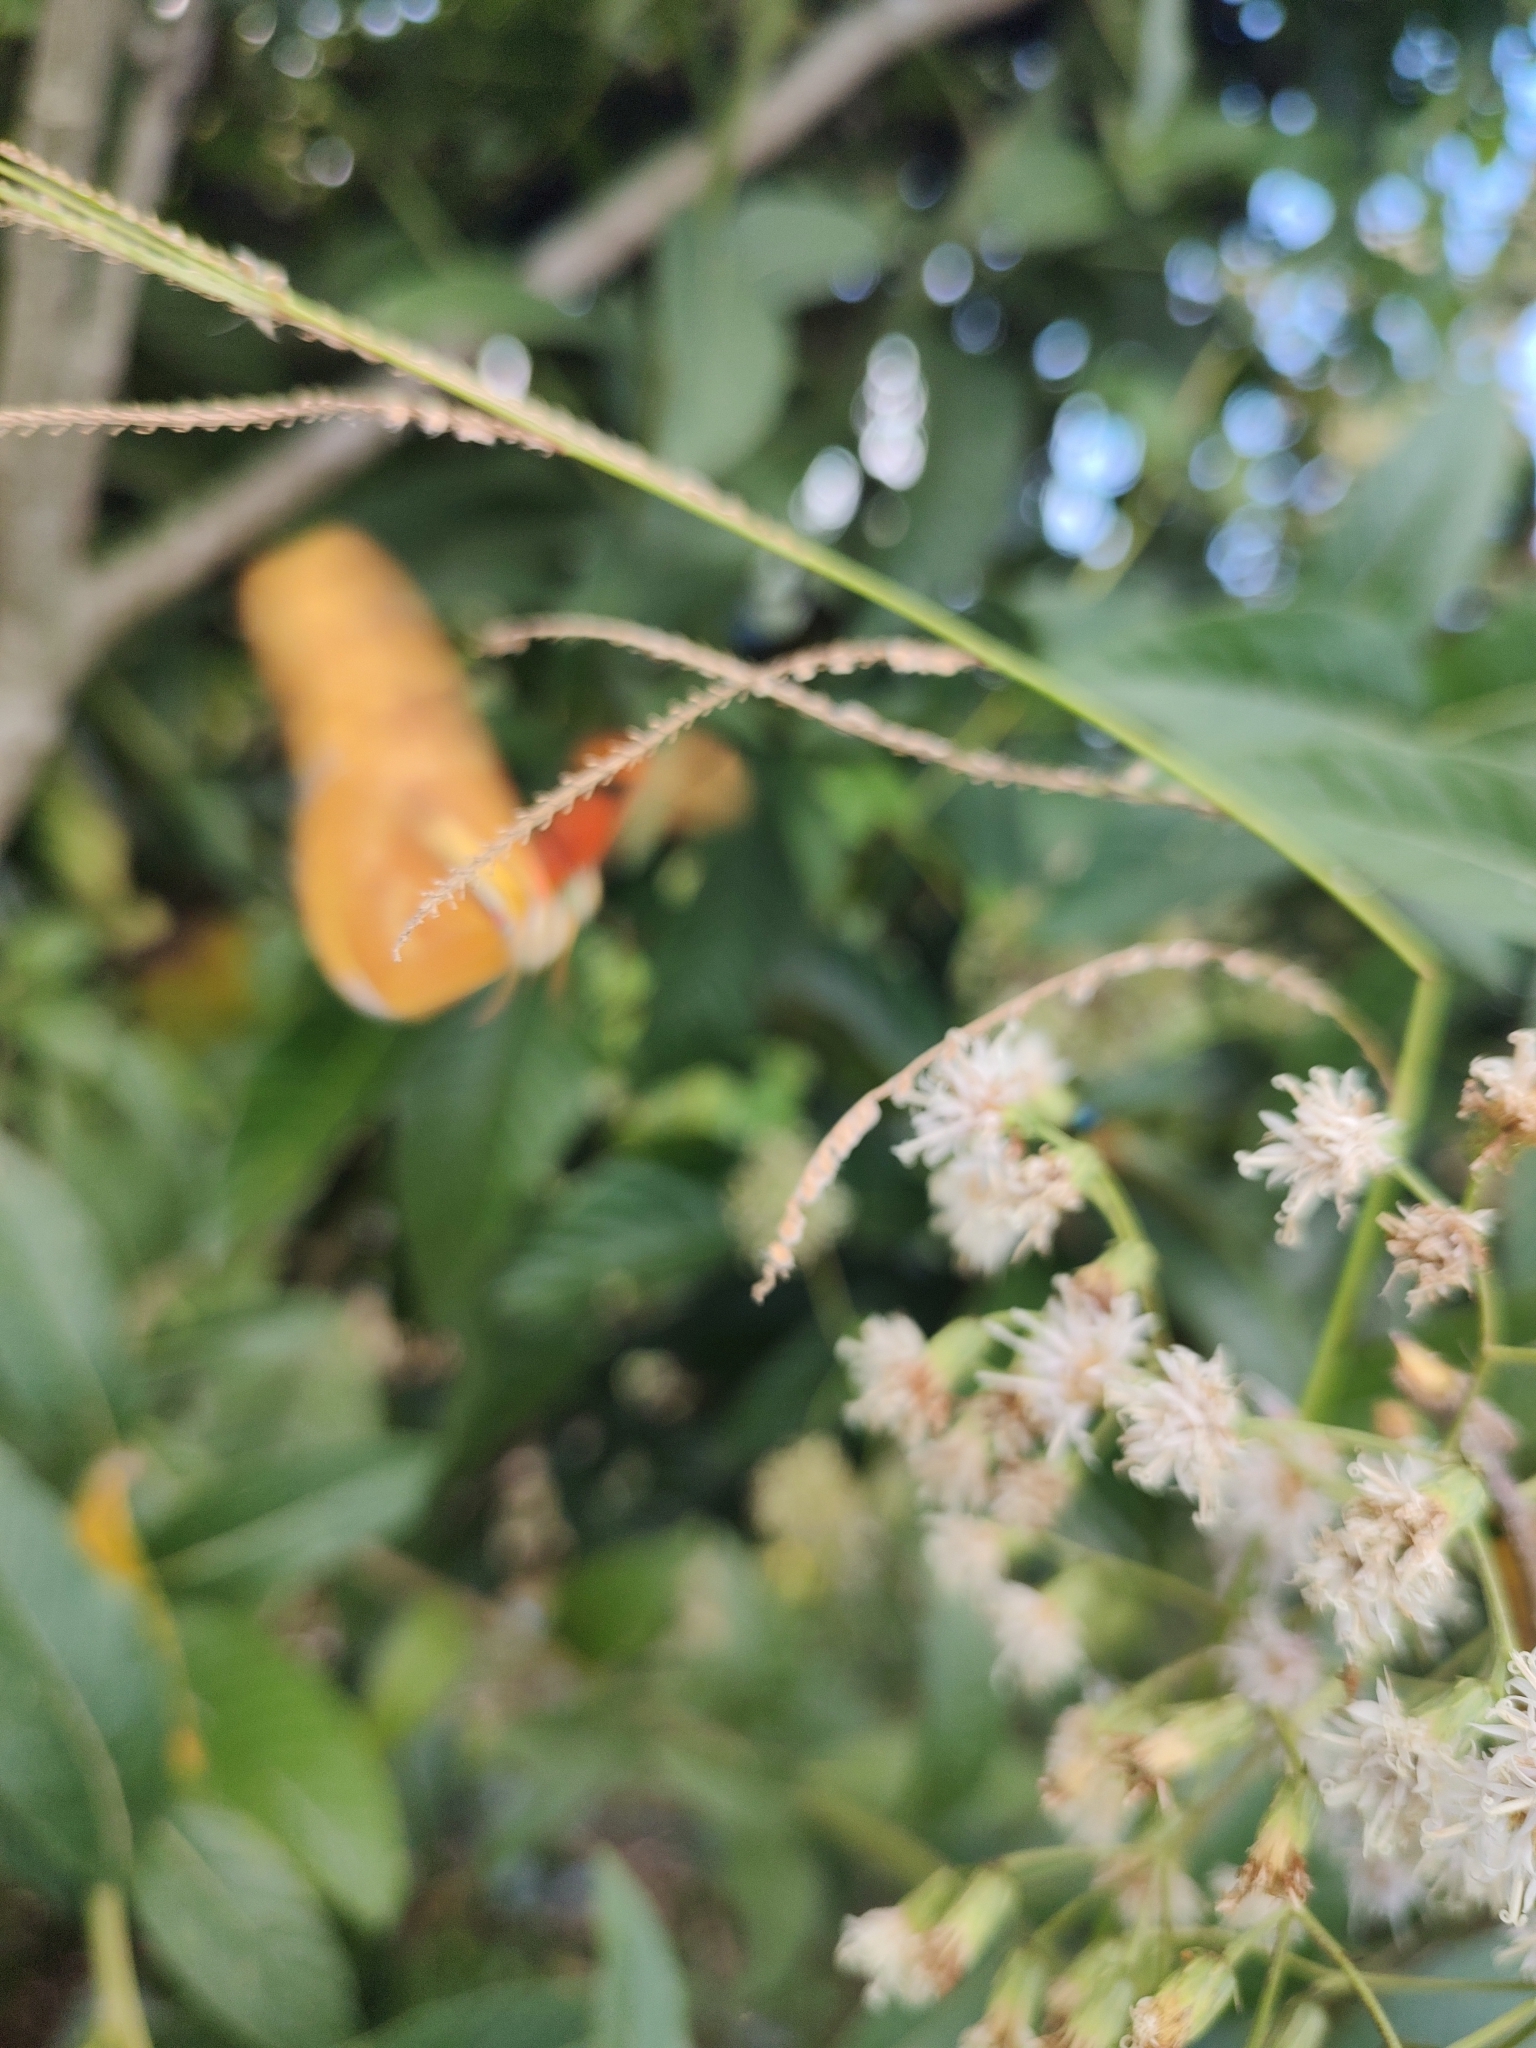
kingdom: Animalia
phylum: Arthropoda
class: Insecta
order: Lepidoptera
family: Nymphalidae
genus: Dryas
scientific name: Dryas iulia
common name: Flambeau
